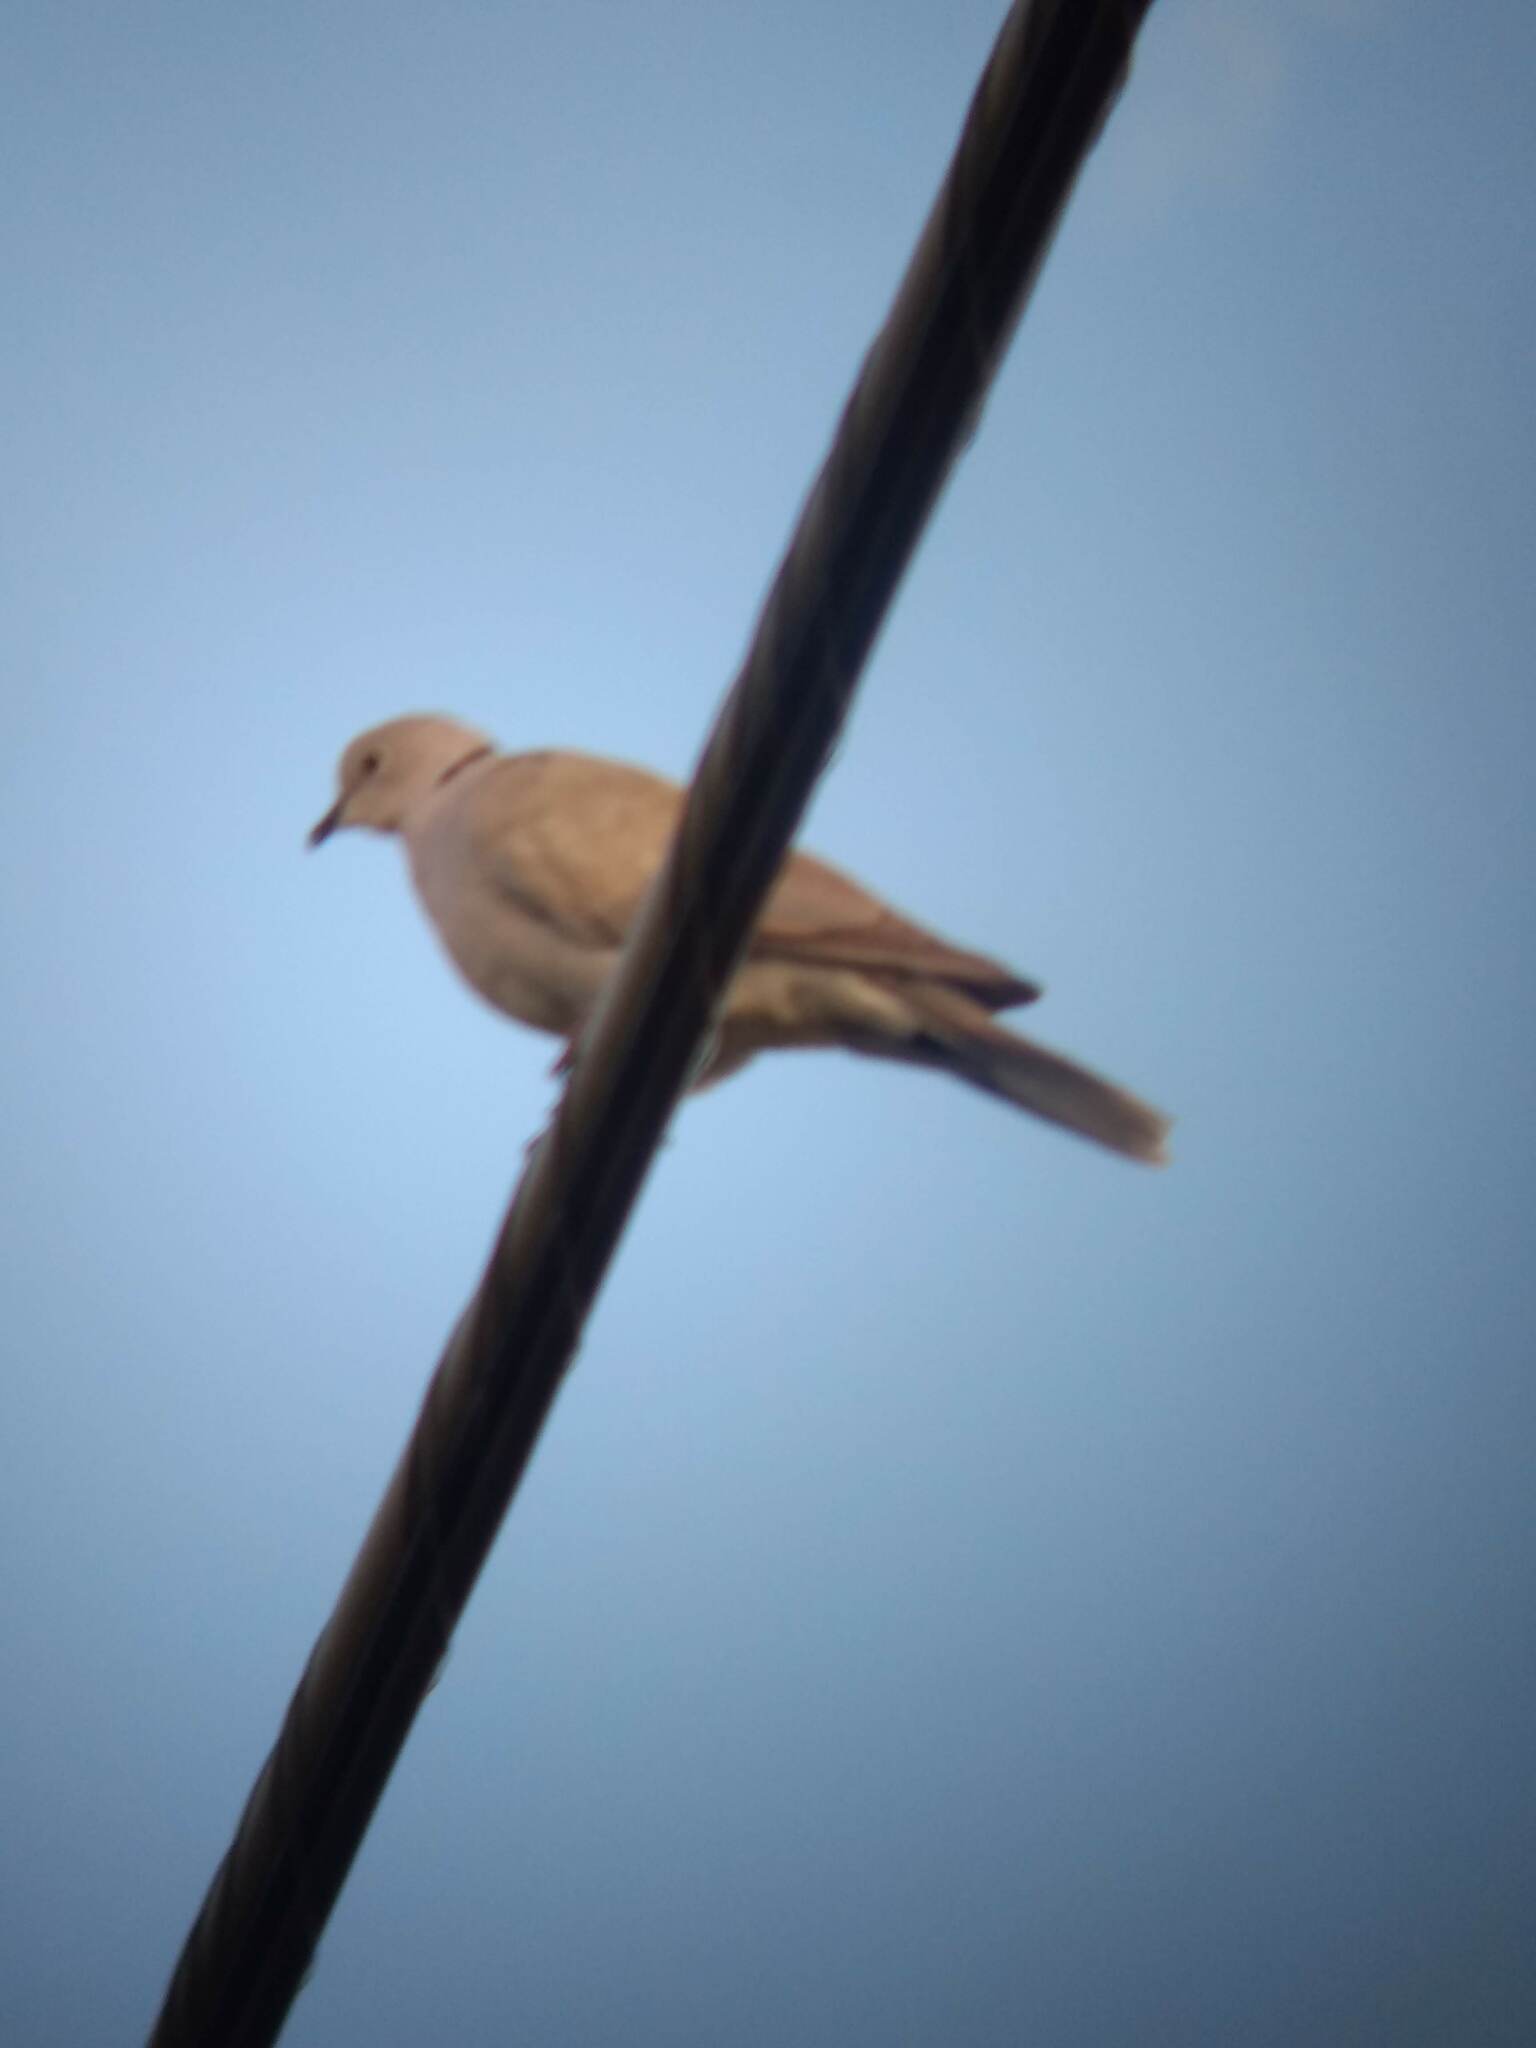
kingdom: Animalia
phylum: Chordata
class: Aves
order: Columbiformes
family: Columbidae
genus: Streptopelia
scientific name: Streptopelia decaocto
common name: Eurasian collared dove
